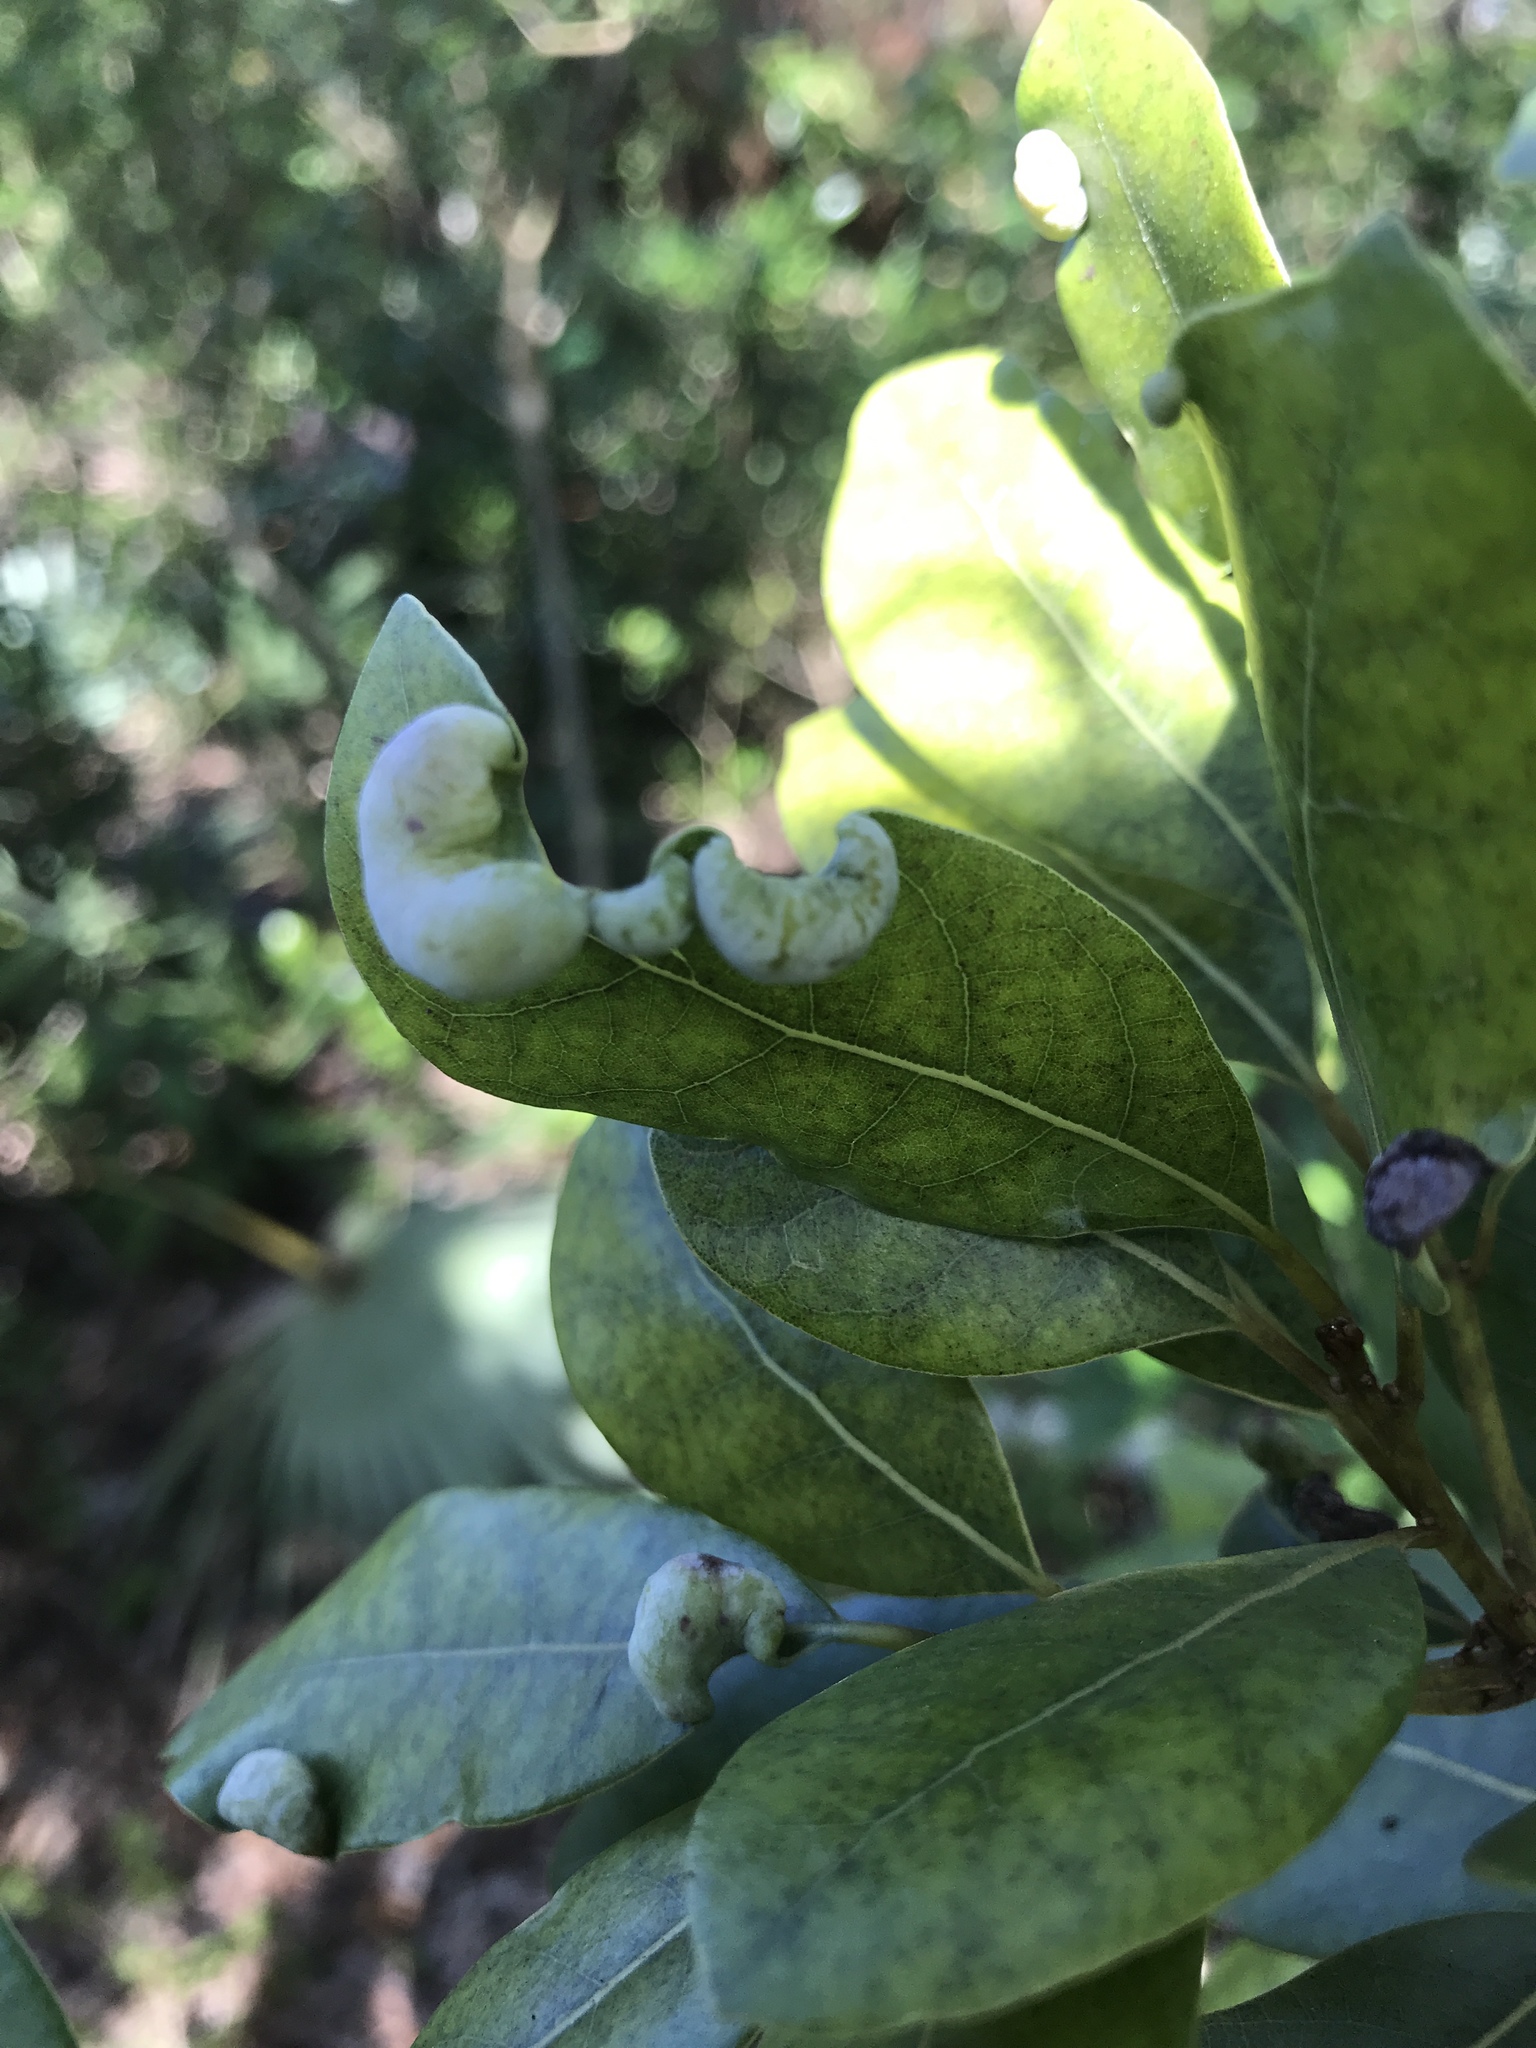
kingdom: Animalia
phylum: Arthropoda
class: Insecta
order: Hemiptera
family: Triozidae
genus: Trioza
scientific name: Trioza magnoliae
